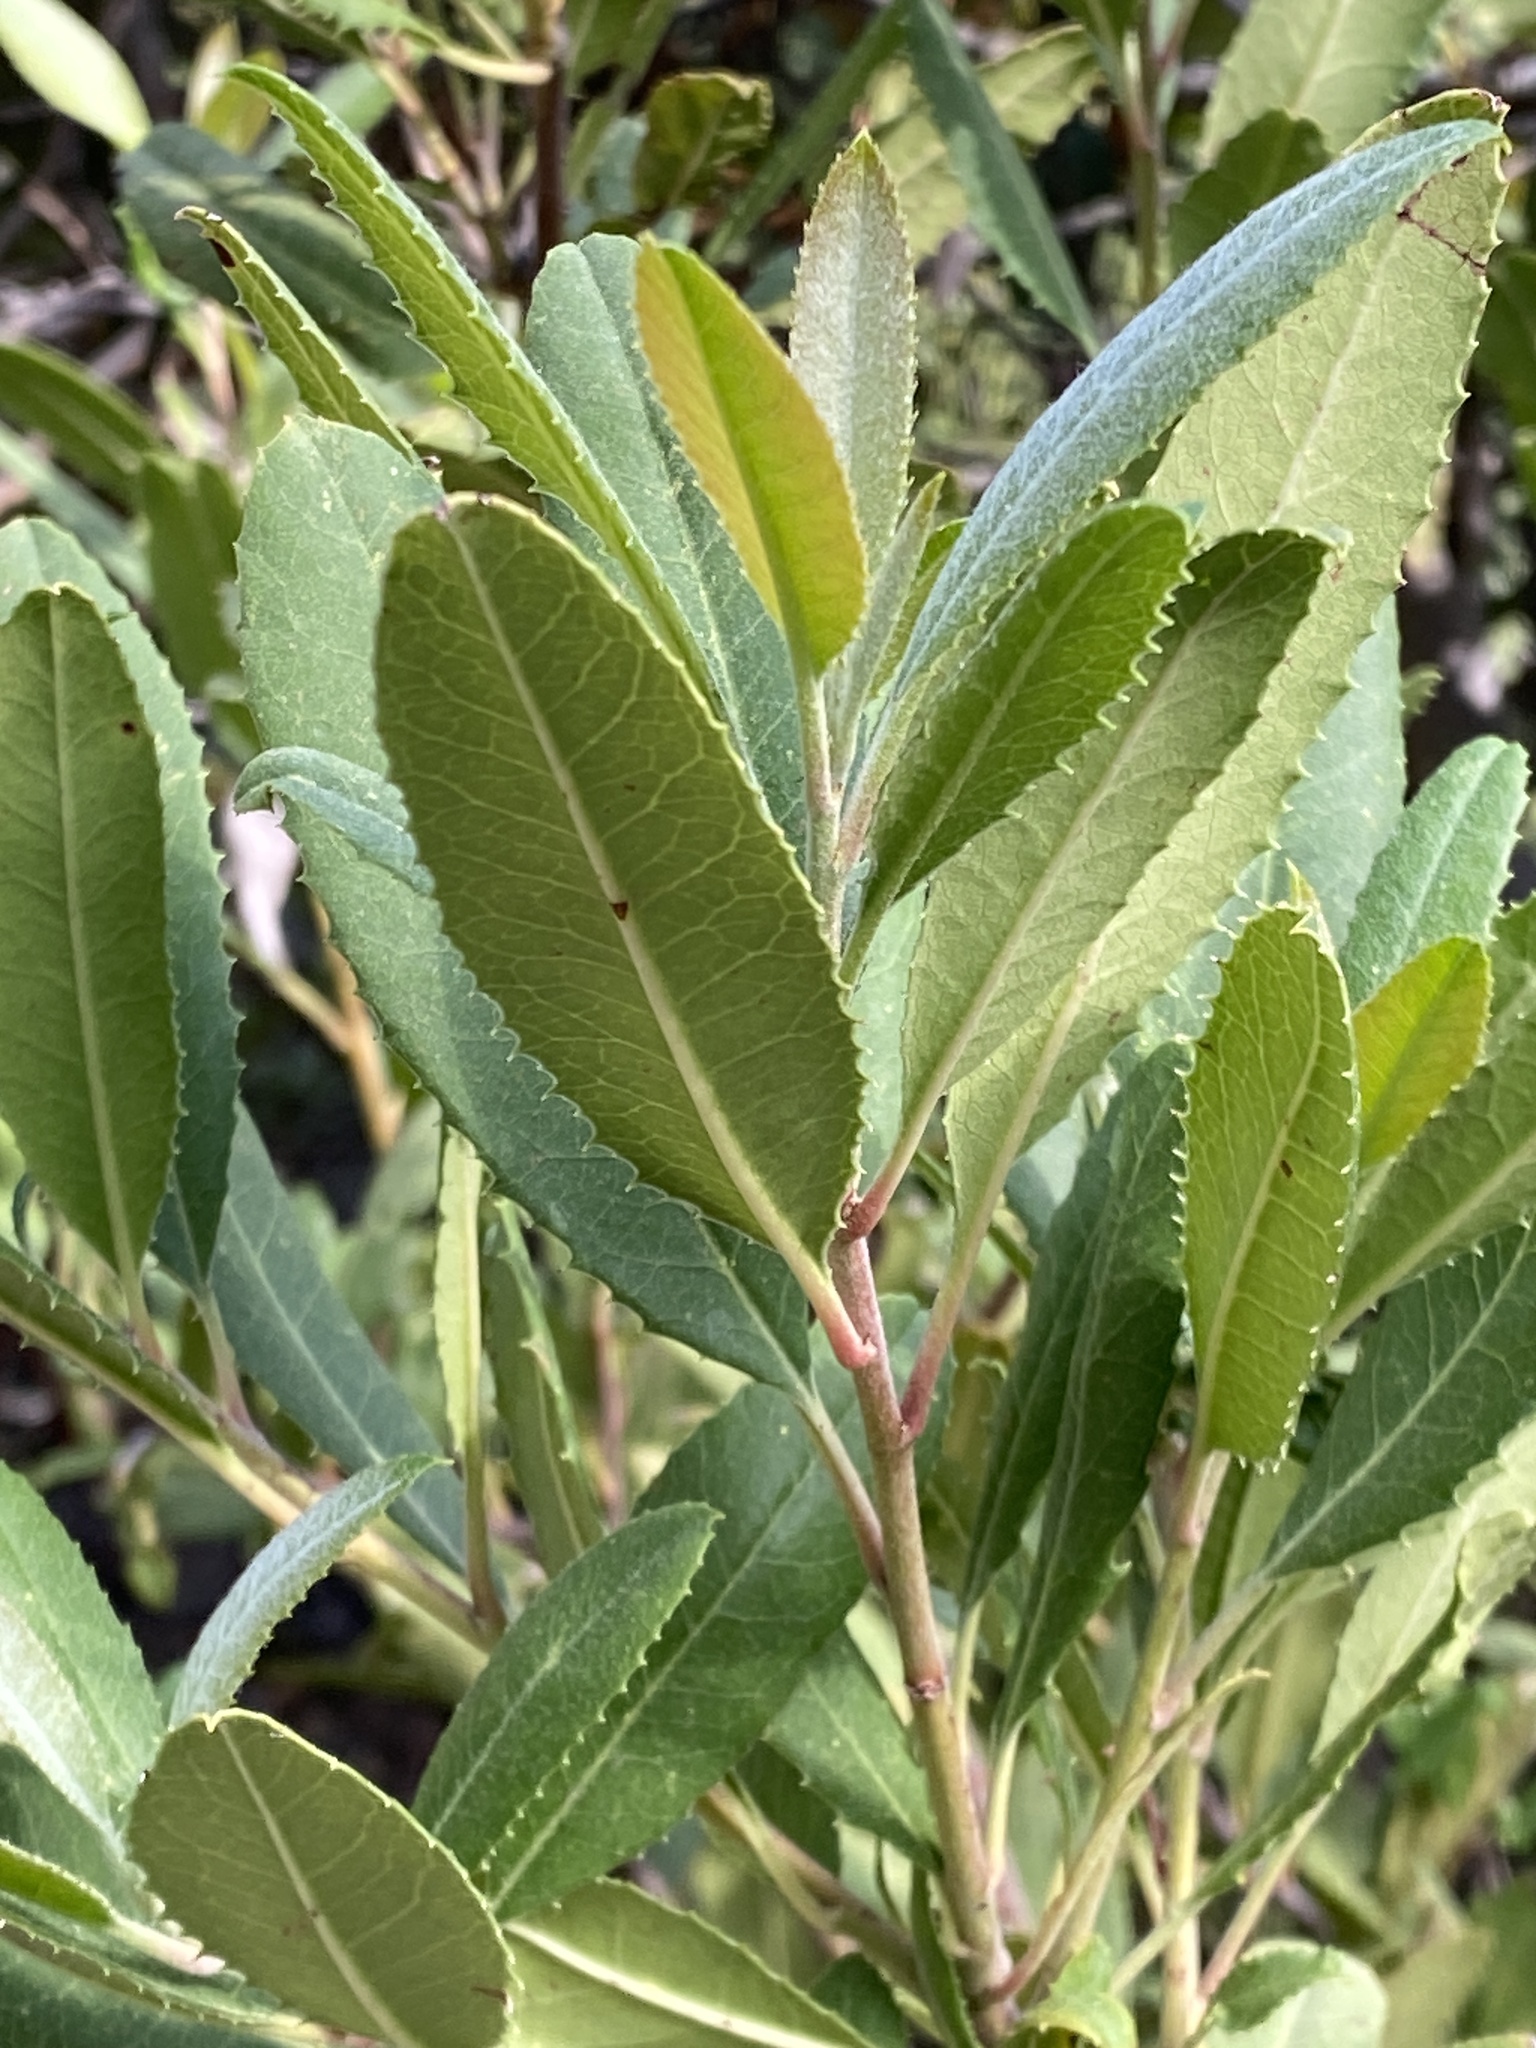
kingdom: Plantae
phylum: Tracheophyta
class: Magnoliopsida
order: Rosales
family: Rosaceae
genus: Heteromeles
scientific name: Heteromeles arbutifolia
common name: California-holly
